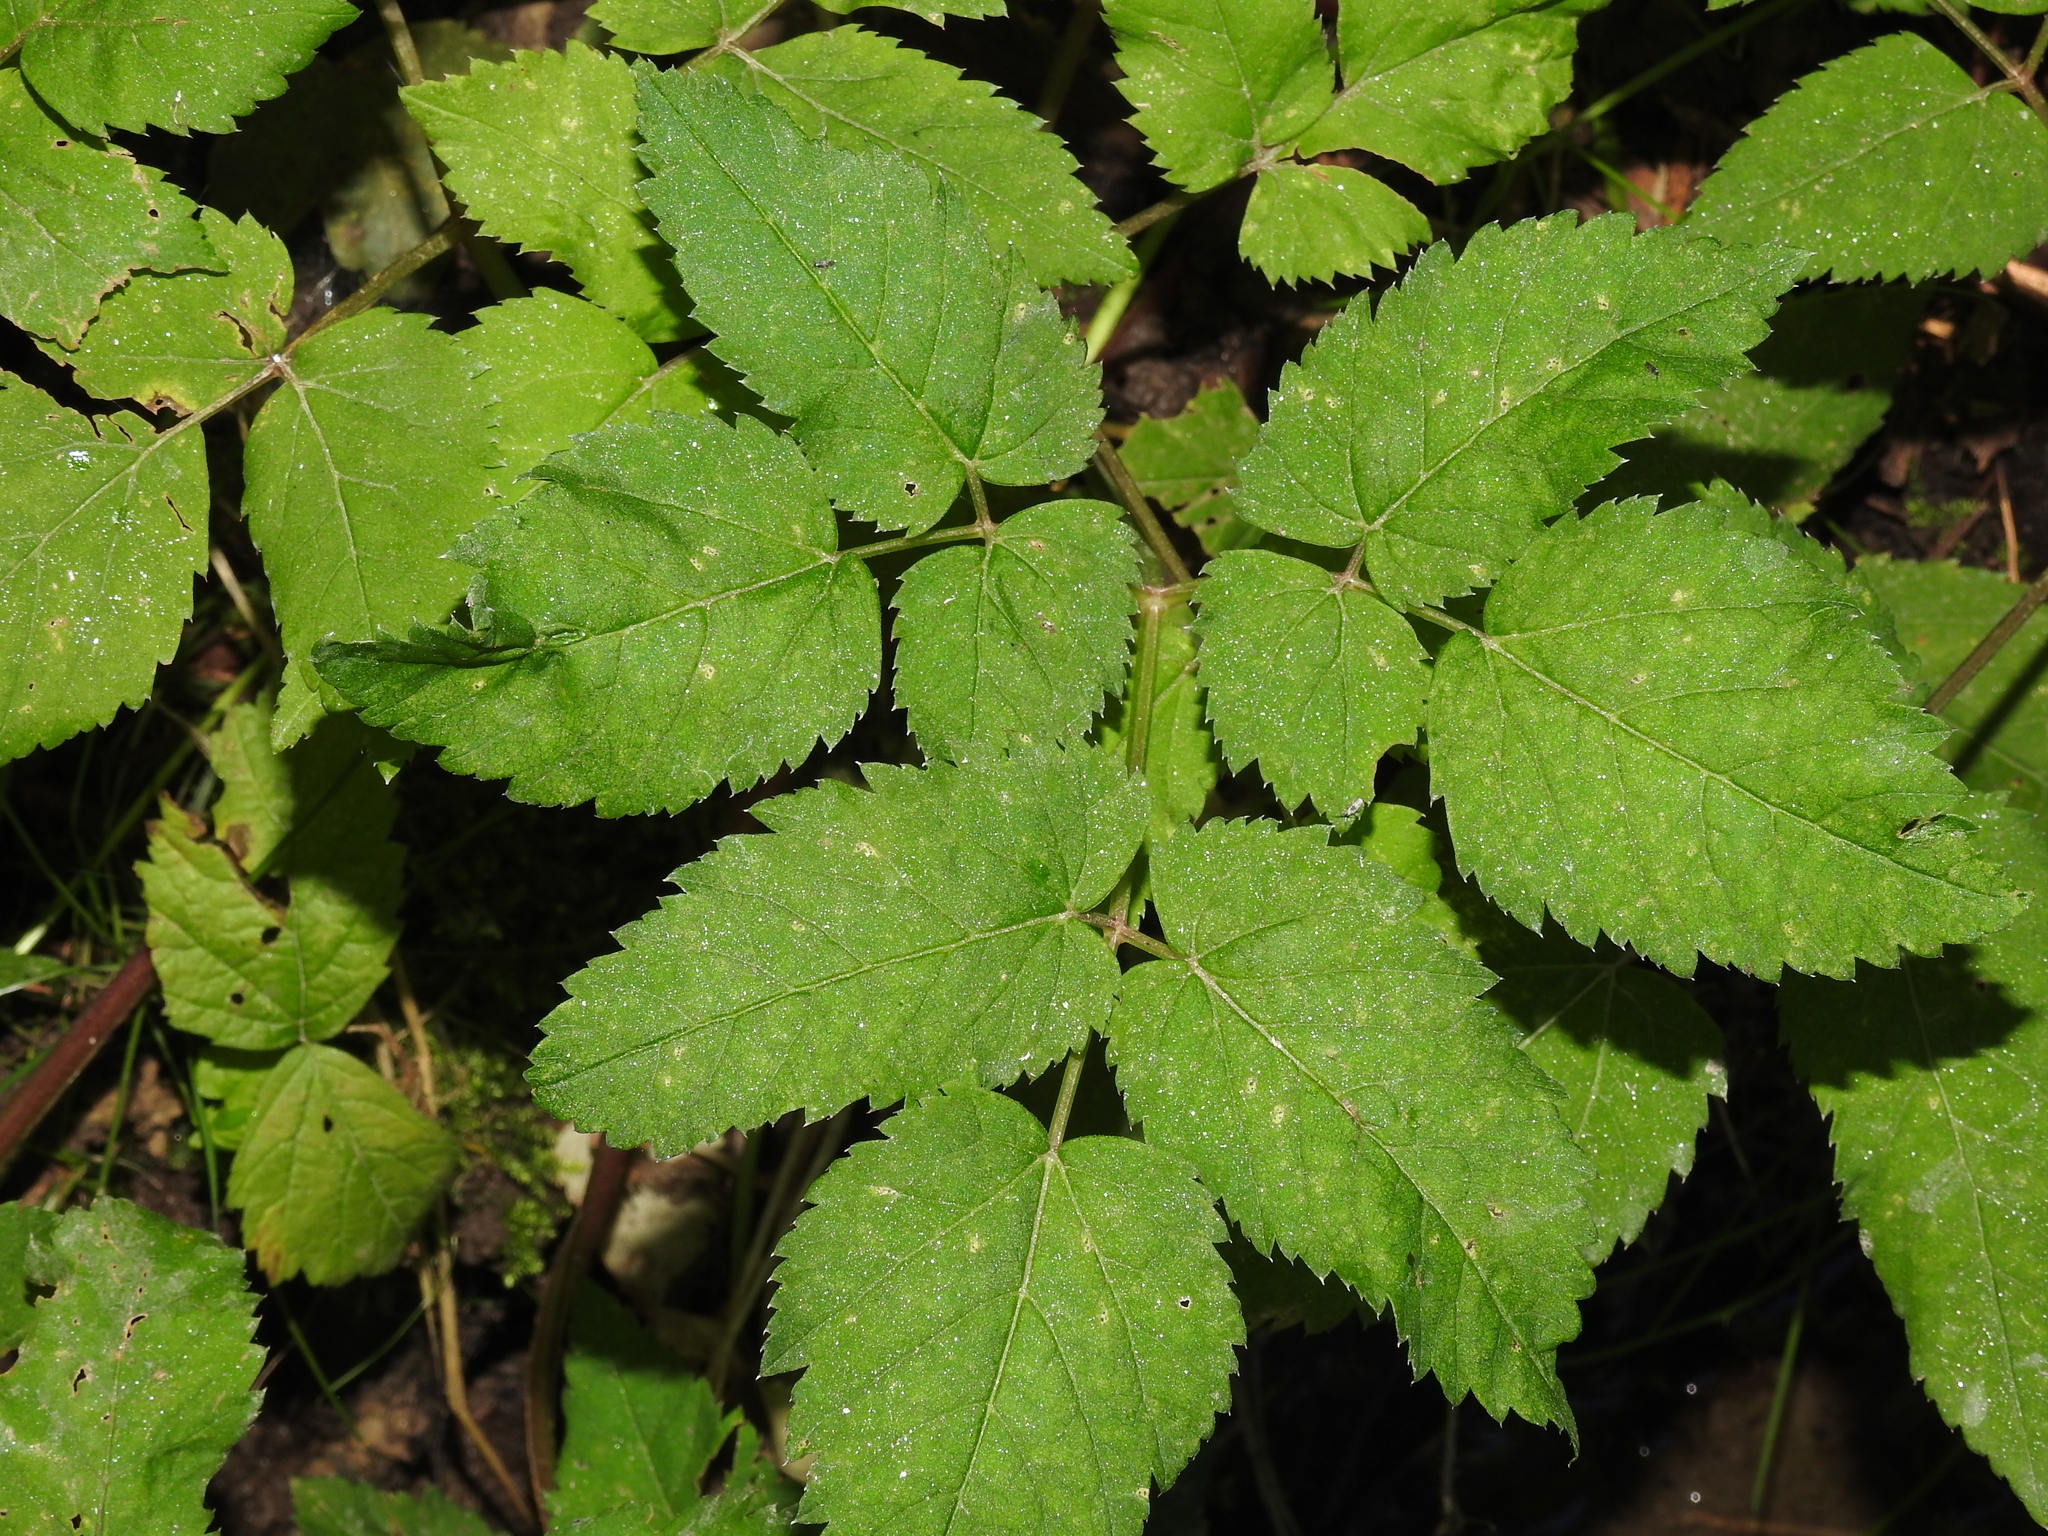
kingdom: Plantae
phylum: Tracheophyta
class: Magnoliopsida
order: Apiales
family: Apiaceae
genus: Aegopodium
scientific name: Aegopodium podagraria
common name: Ground-elder
